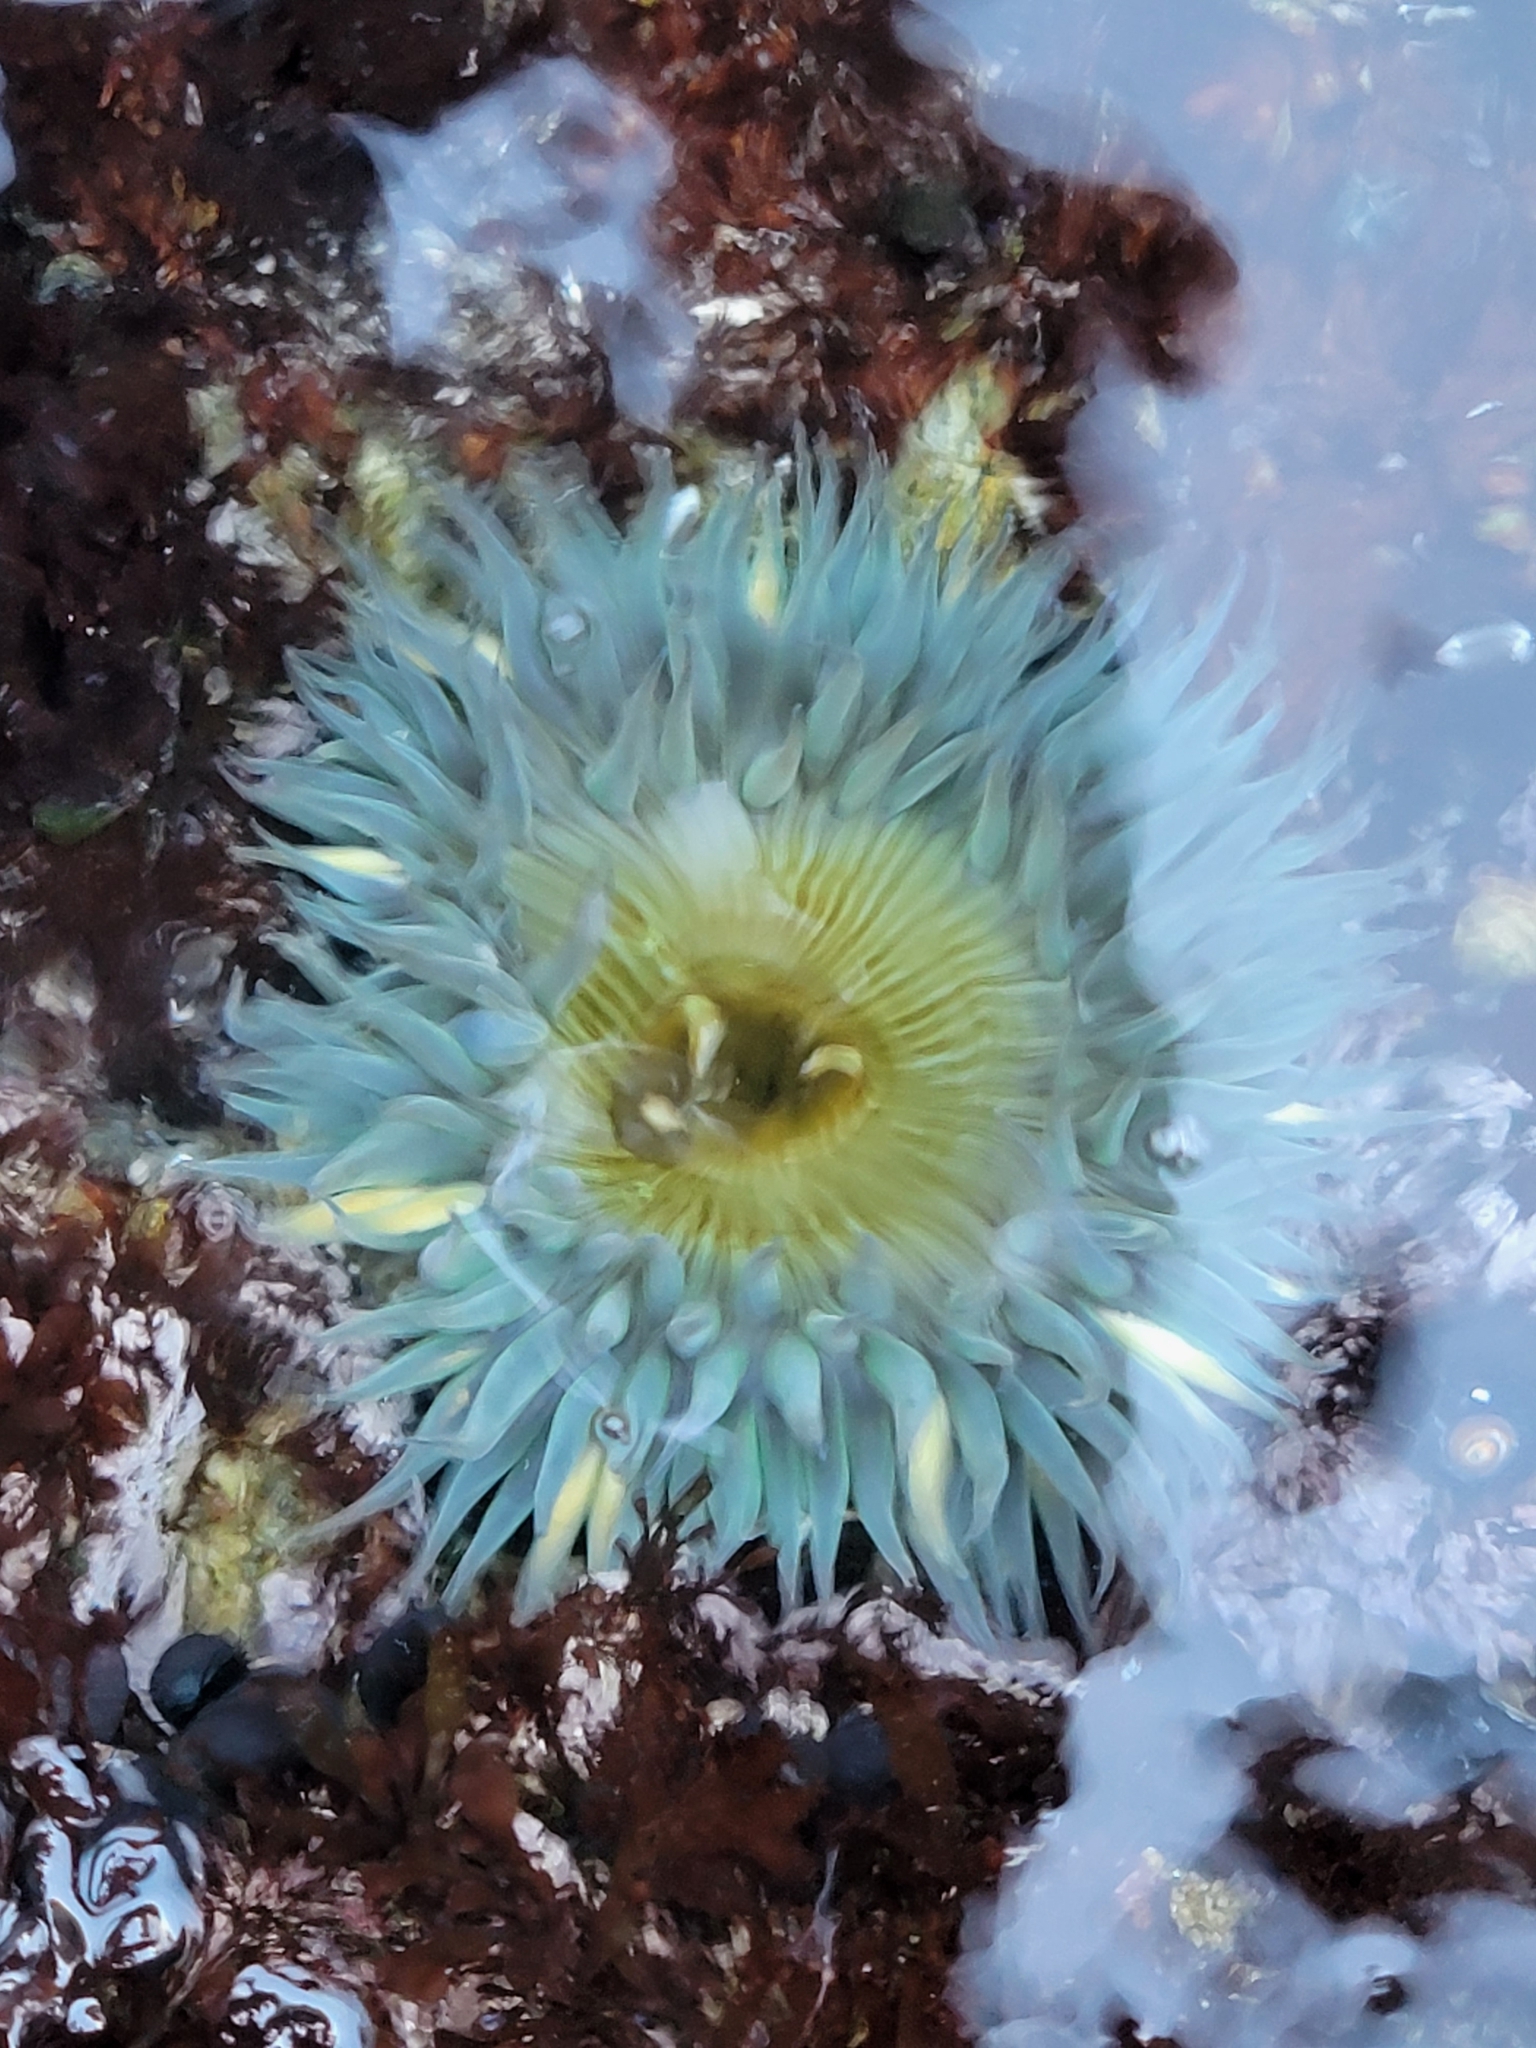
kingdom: Animalia
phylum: Cnidaria
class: Anthozoa
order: Actiniaria
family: Actiniidae
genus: Anthopleura
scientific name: Anthopleura sola
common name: Sun anemone
